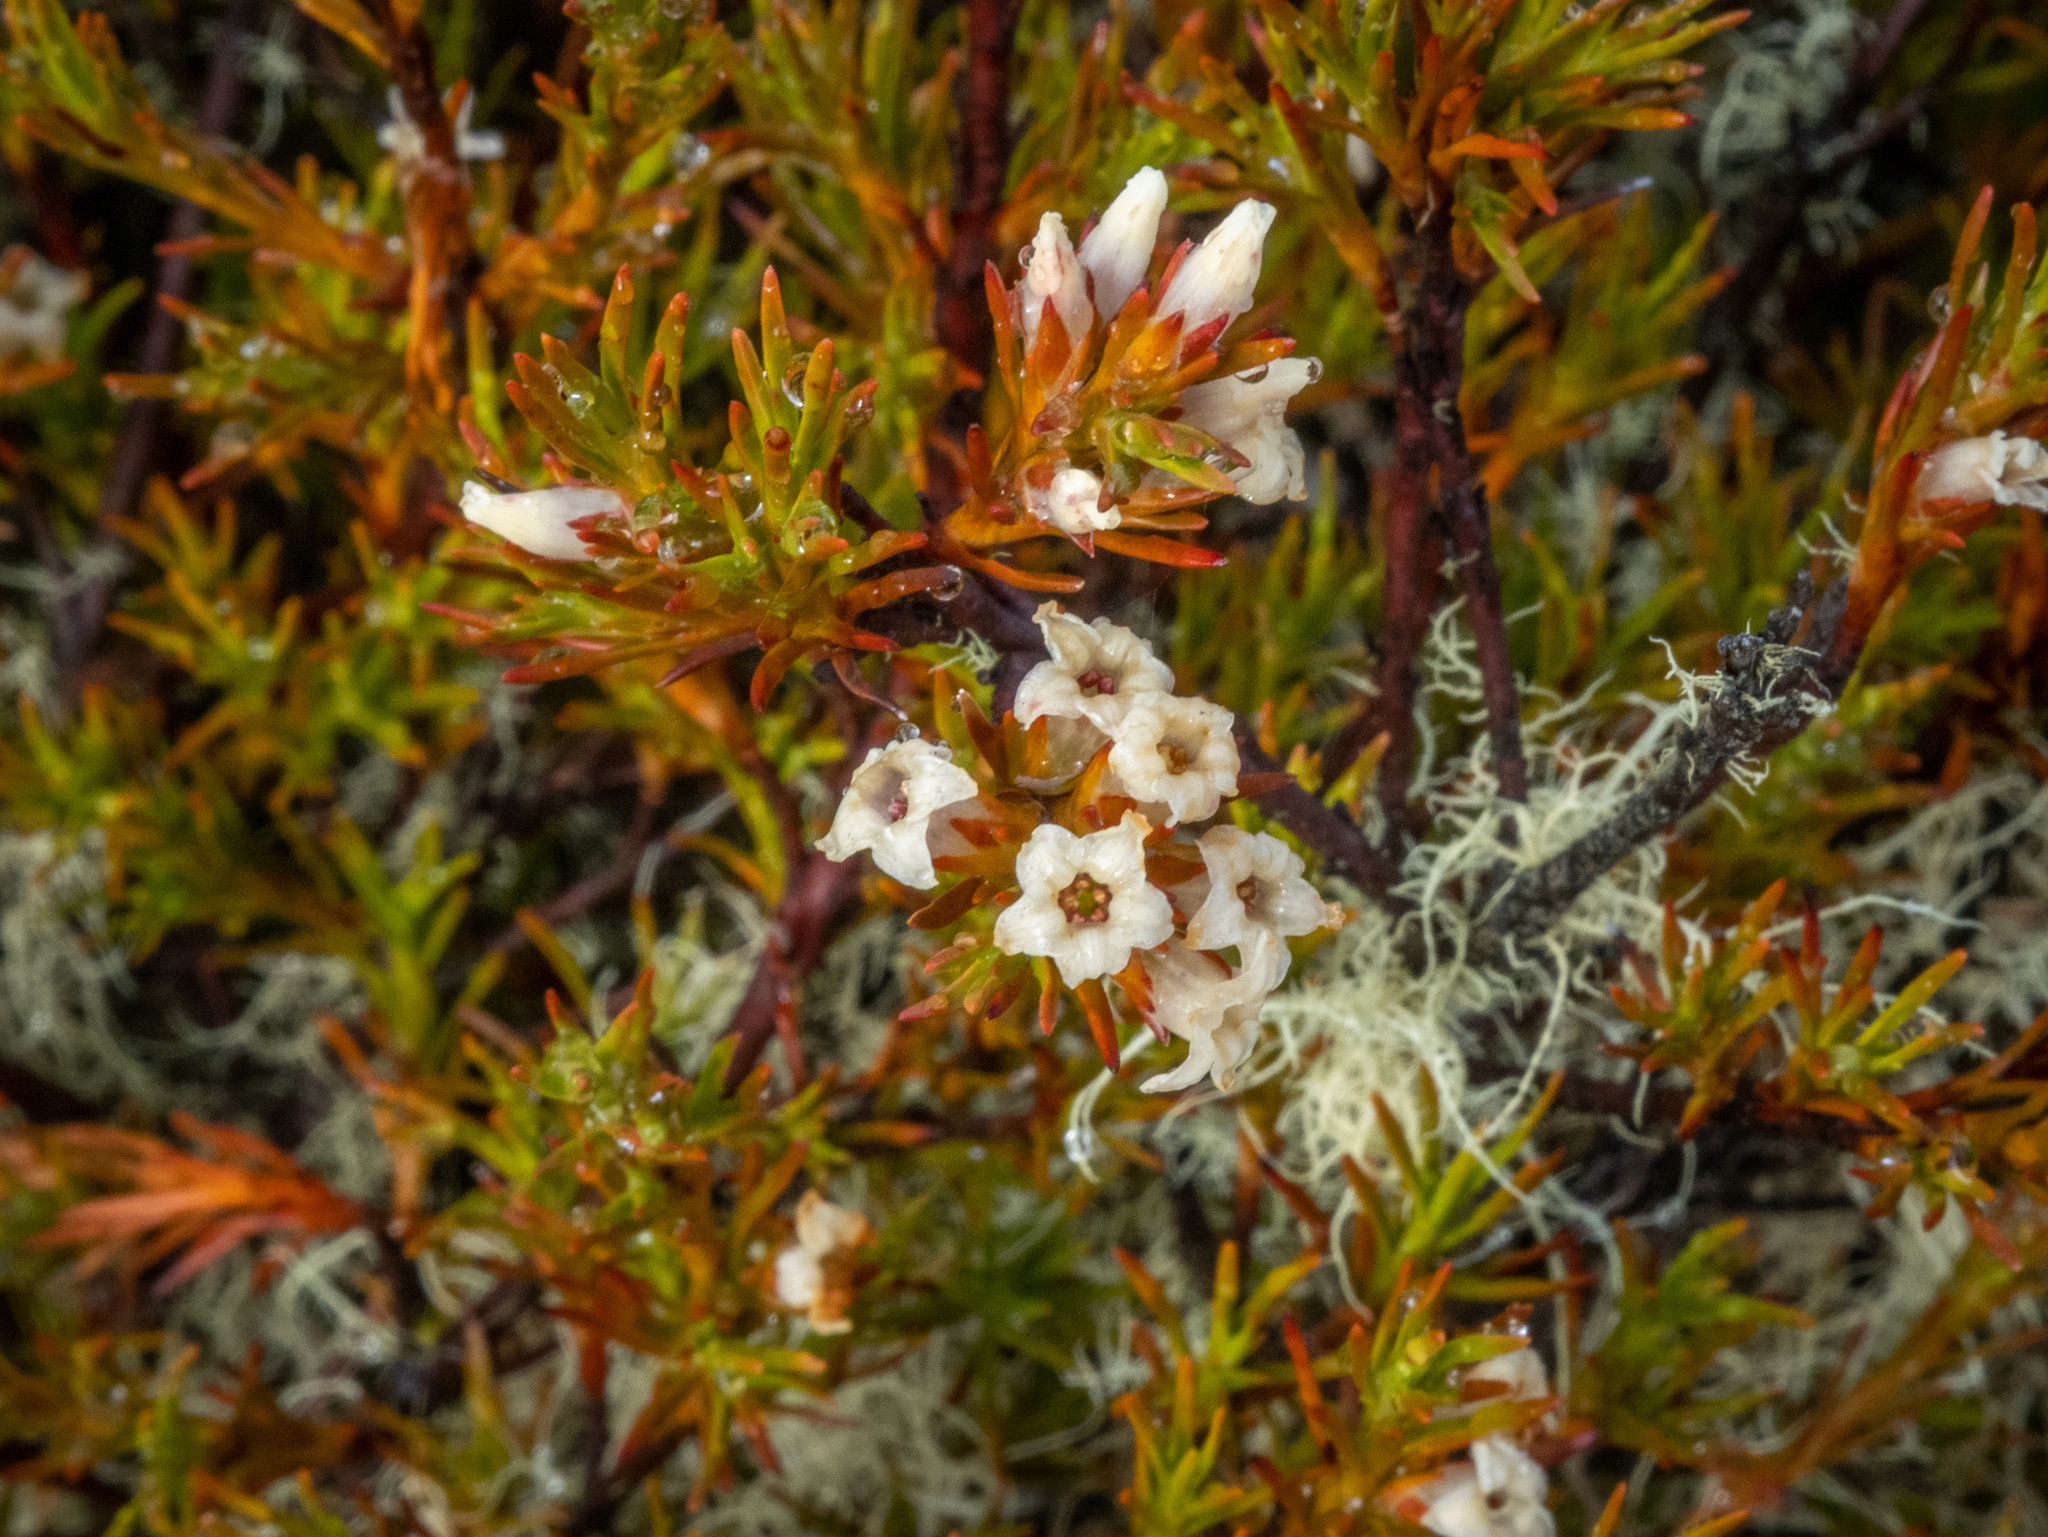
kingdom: Plantae
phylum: Tracheophyta
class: Magnoliopsida
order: Ericales
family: Ericaceae
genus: Dracophyllum
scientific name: Dracophyllum rosmarinifolium
